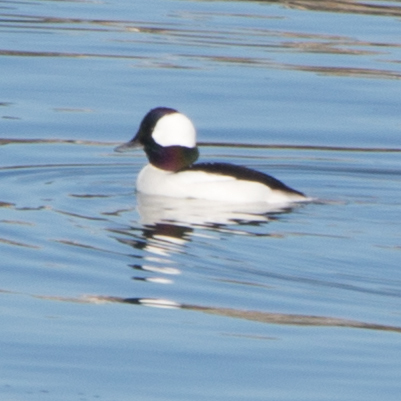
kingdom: Animalia
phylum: Chordata
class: Aves
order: Anseriformes
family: Anatidae
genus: Bucephala
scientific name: Bucephala albeola
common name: Bufflehead
